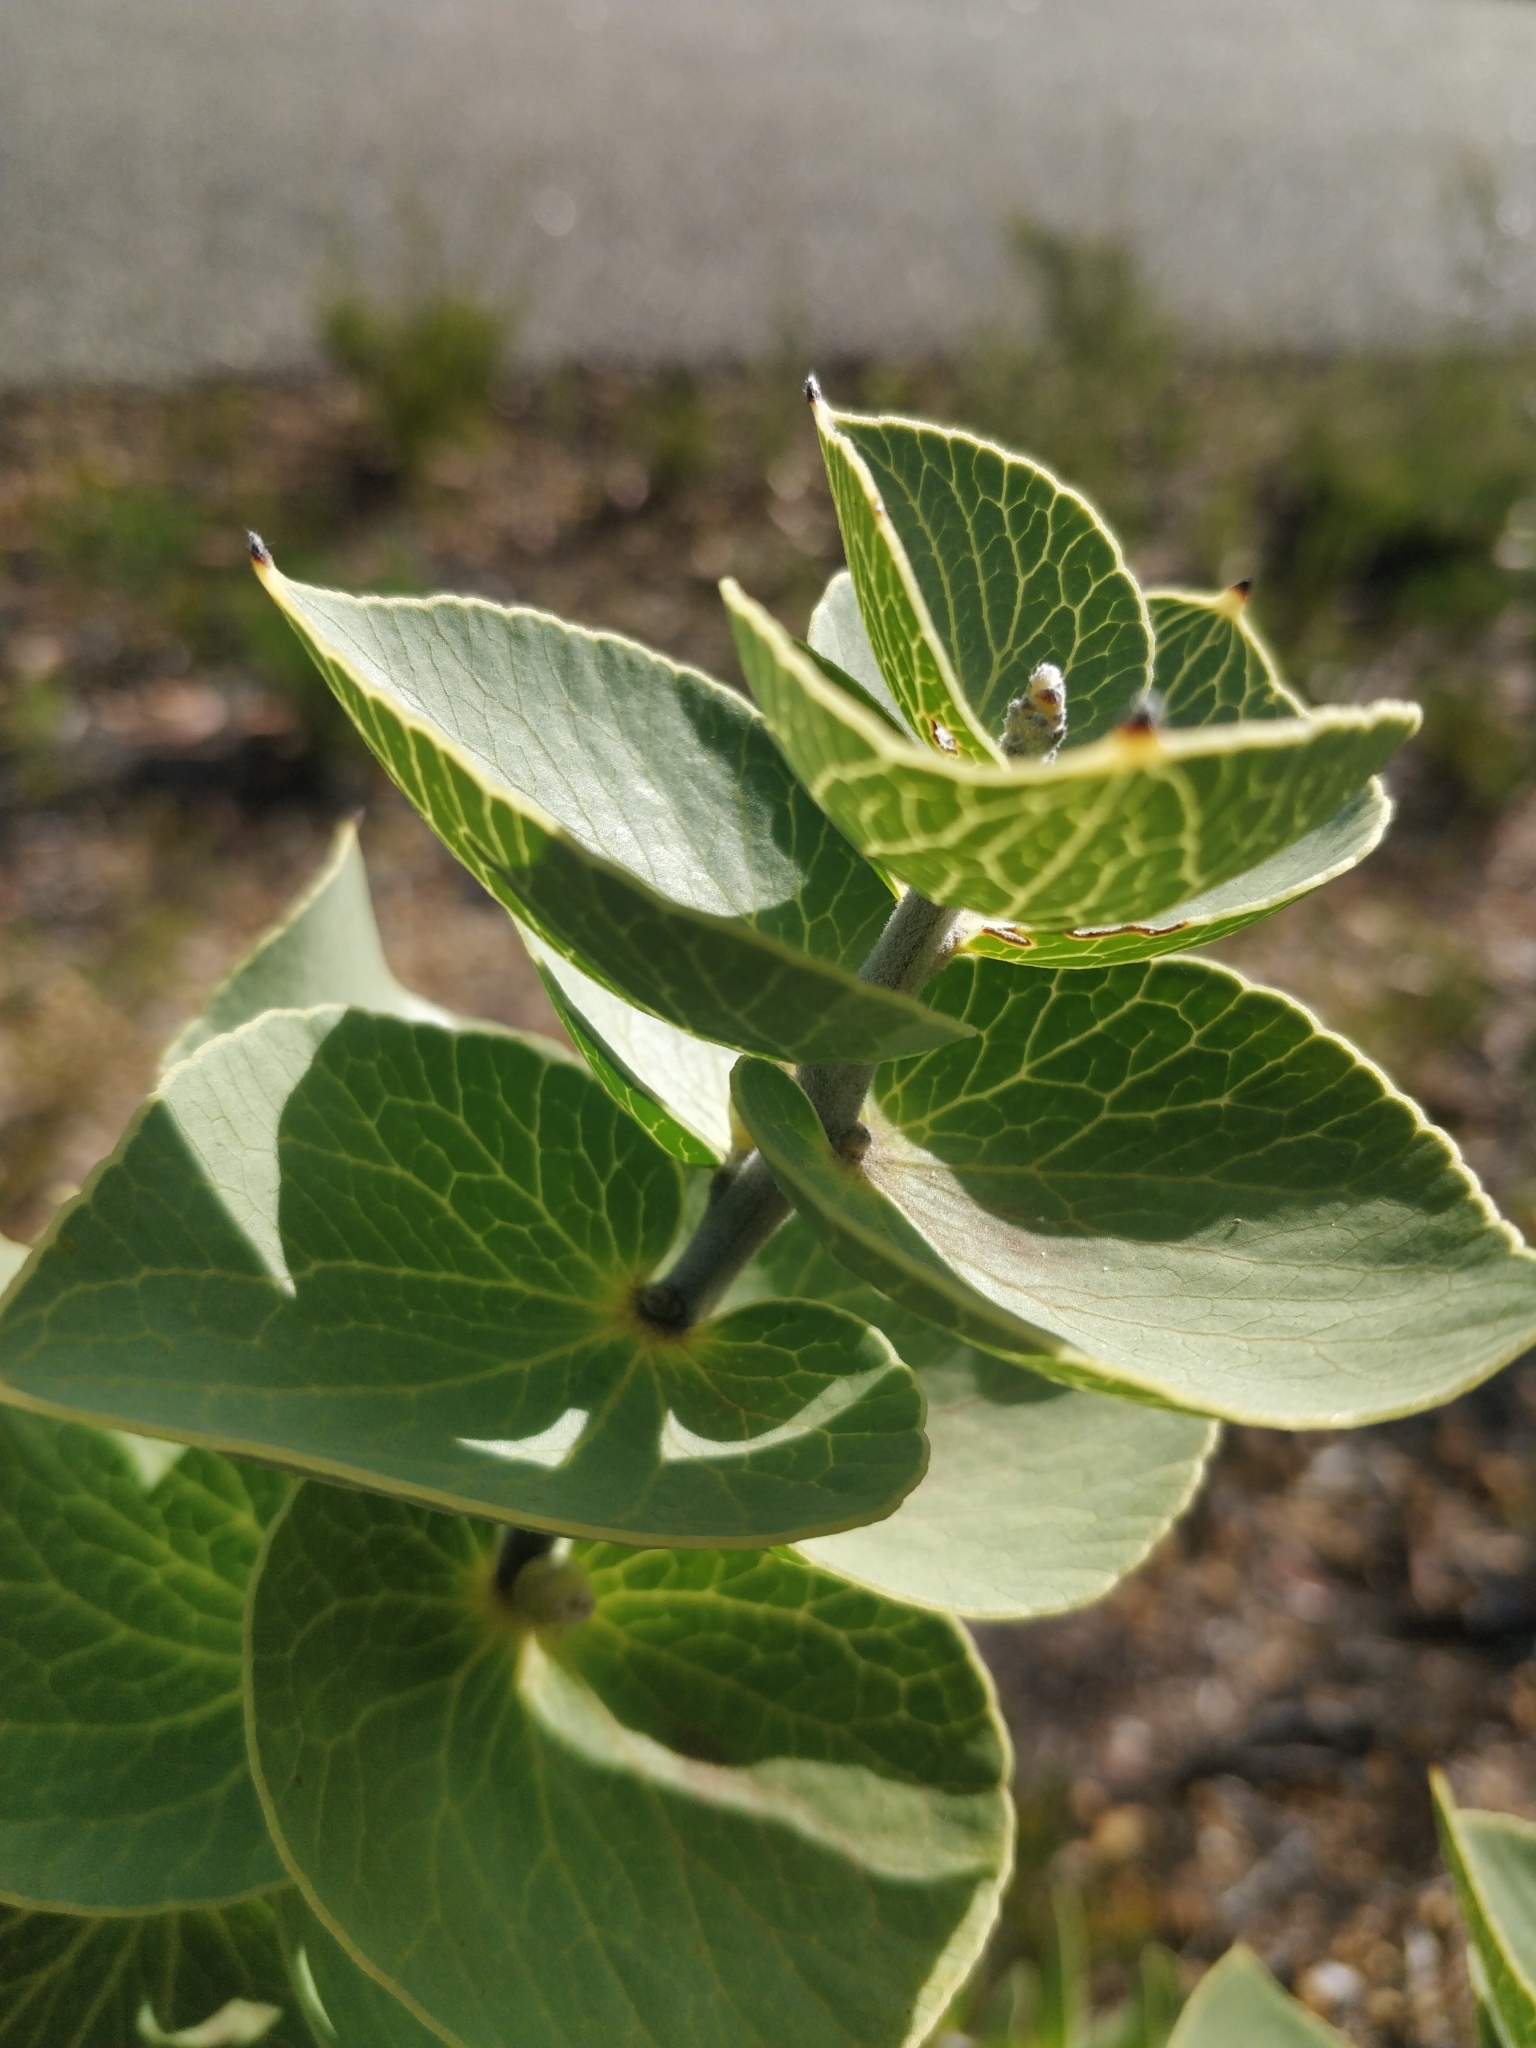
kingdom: Plantae
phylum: Tracheophyta
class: Magnoliopsida
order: Proteales
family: Proteaceae
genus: Hakea
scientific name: Hakea cucullata
